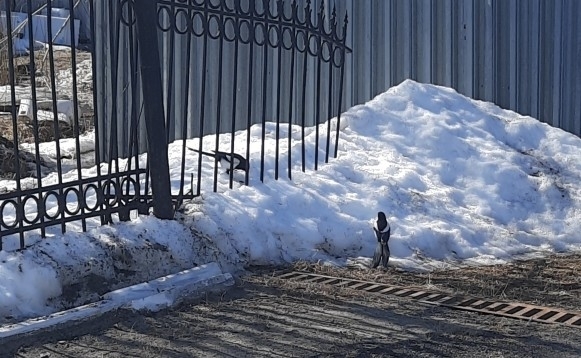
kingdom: Animalia
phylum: Chordata
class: Aves
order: Passeriformes
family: Corvidae
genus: Pica
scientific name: Pica pica
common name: Eurasian magpie
